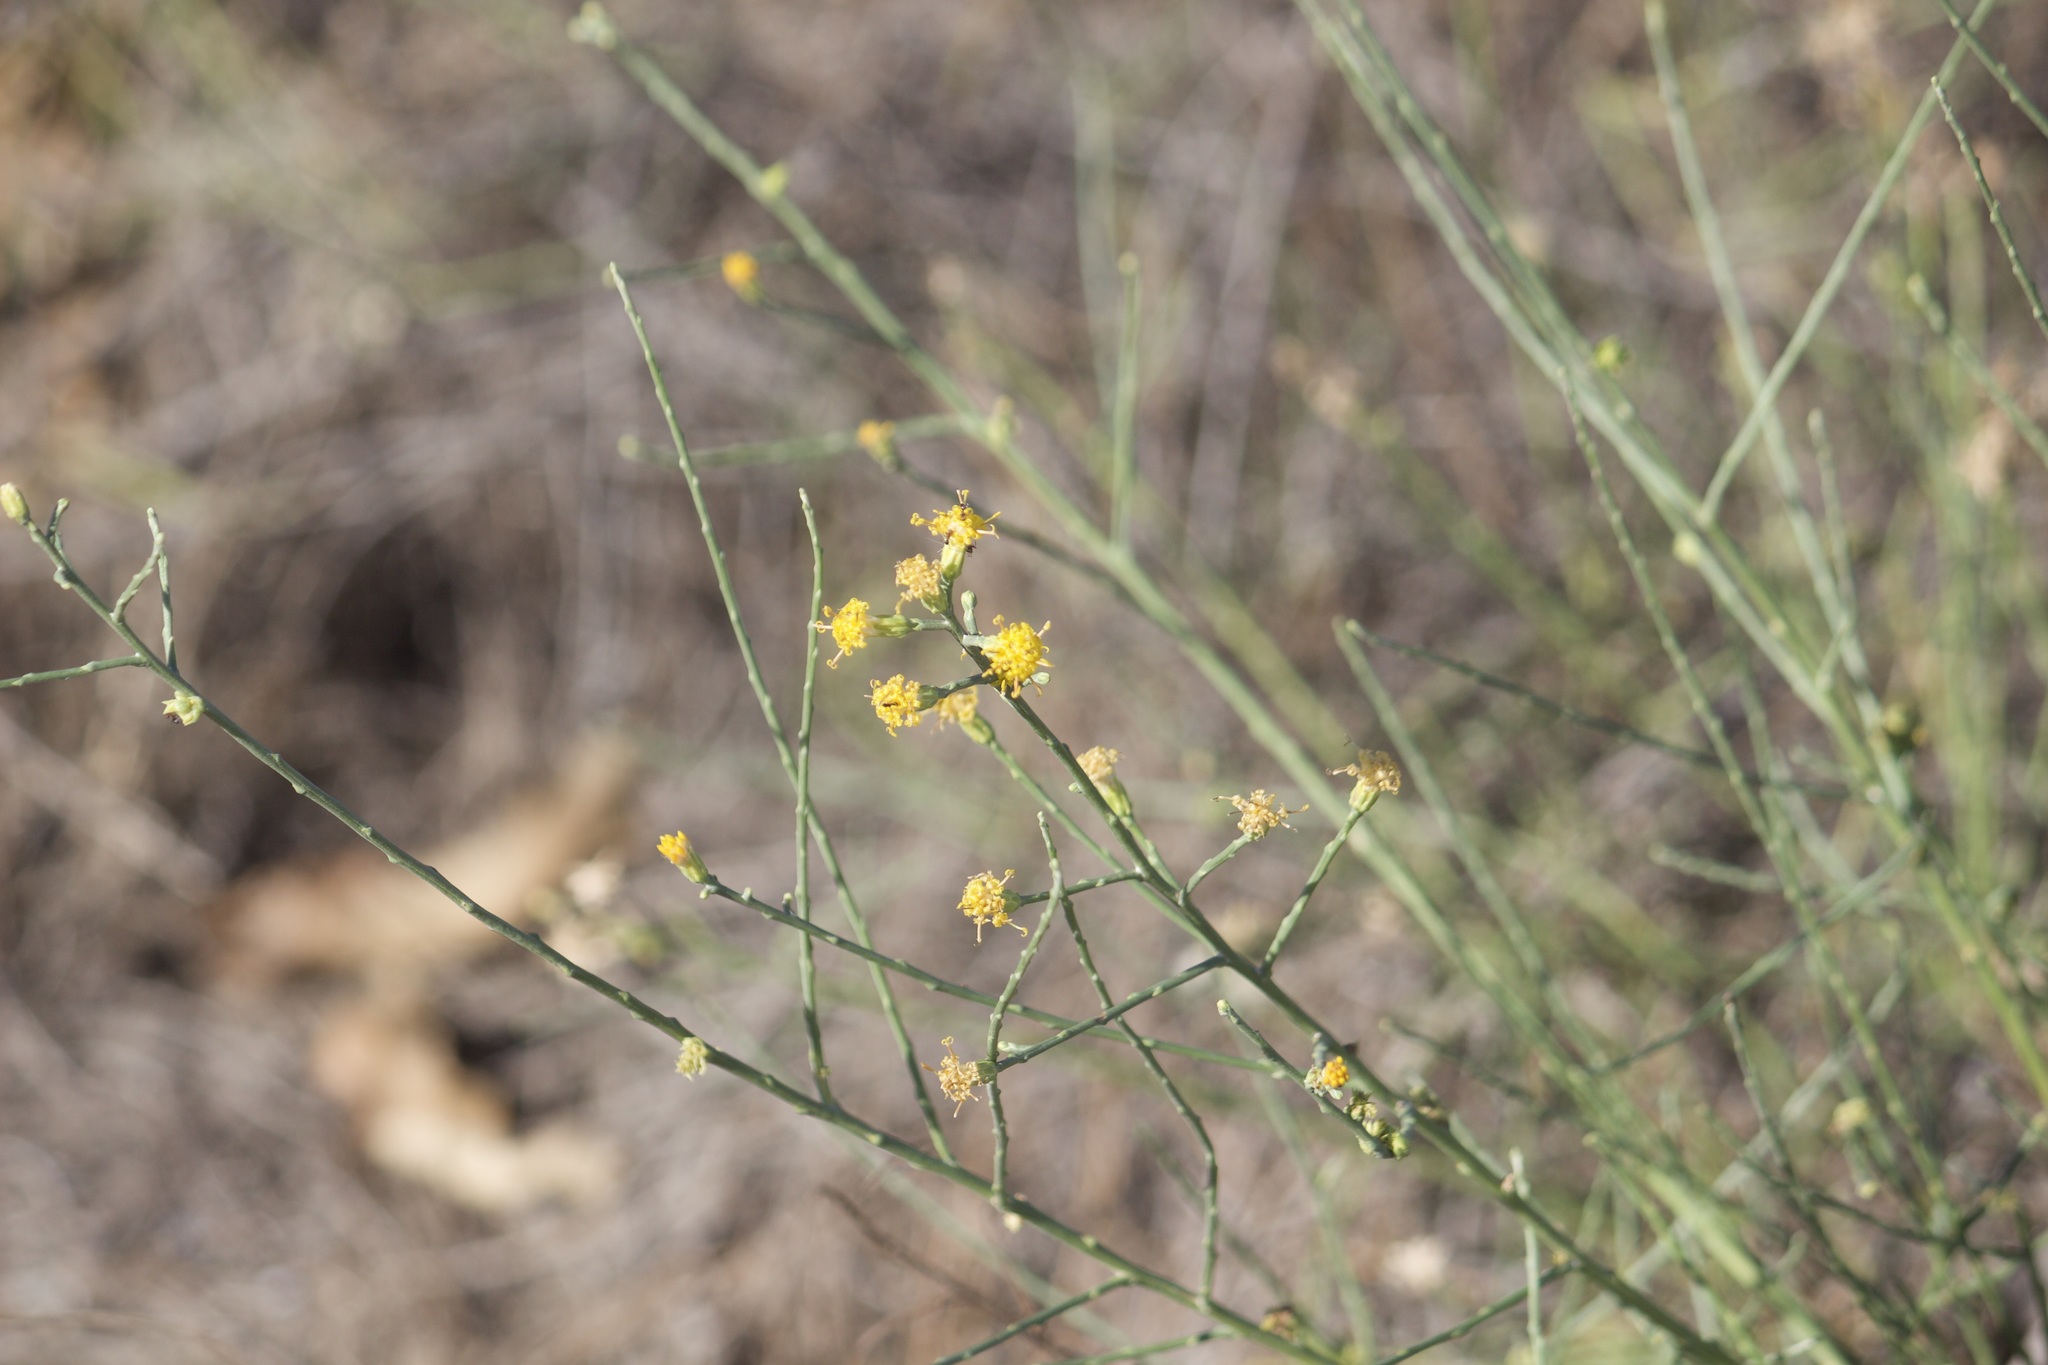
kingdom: Plantae
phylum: Tracheophyta
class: Magnoliopsida
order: Asterales
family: Asteraceae
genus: Lepidospartum
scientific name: Lepidospartum squamatum
